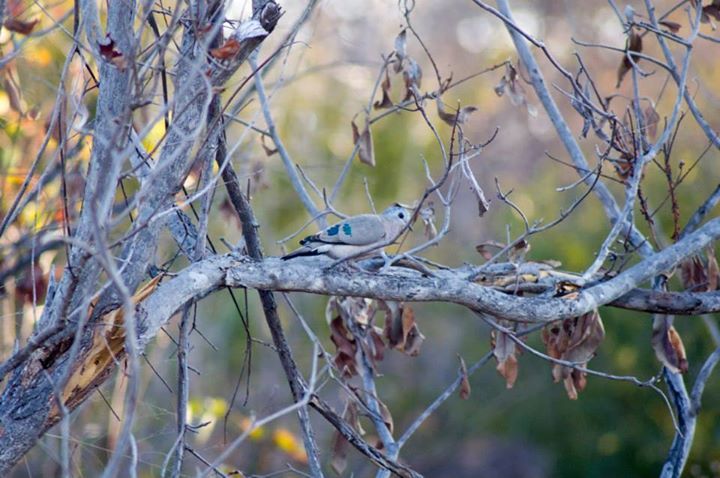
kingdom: Animalia
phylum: Chordata
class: Aves
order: Columbiformes
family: Columbidae
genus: Turtur
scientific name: Turtur chalcospilos
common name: Emerald-spotted wood dove
